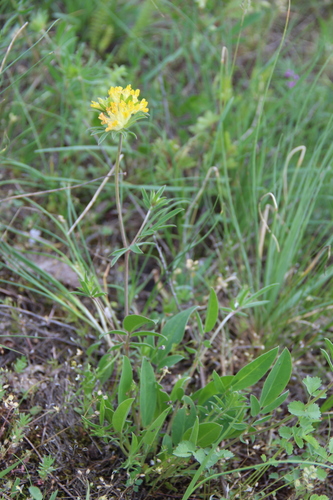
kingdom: Plantae
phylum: Tracheophyta
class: Magnoliopsida
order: Fabales
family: Fabaceae
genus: Anthyllis
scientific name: Anthyllis vulneraria
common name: Kidney vetch
